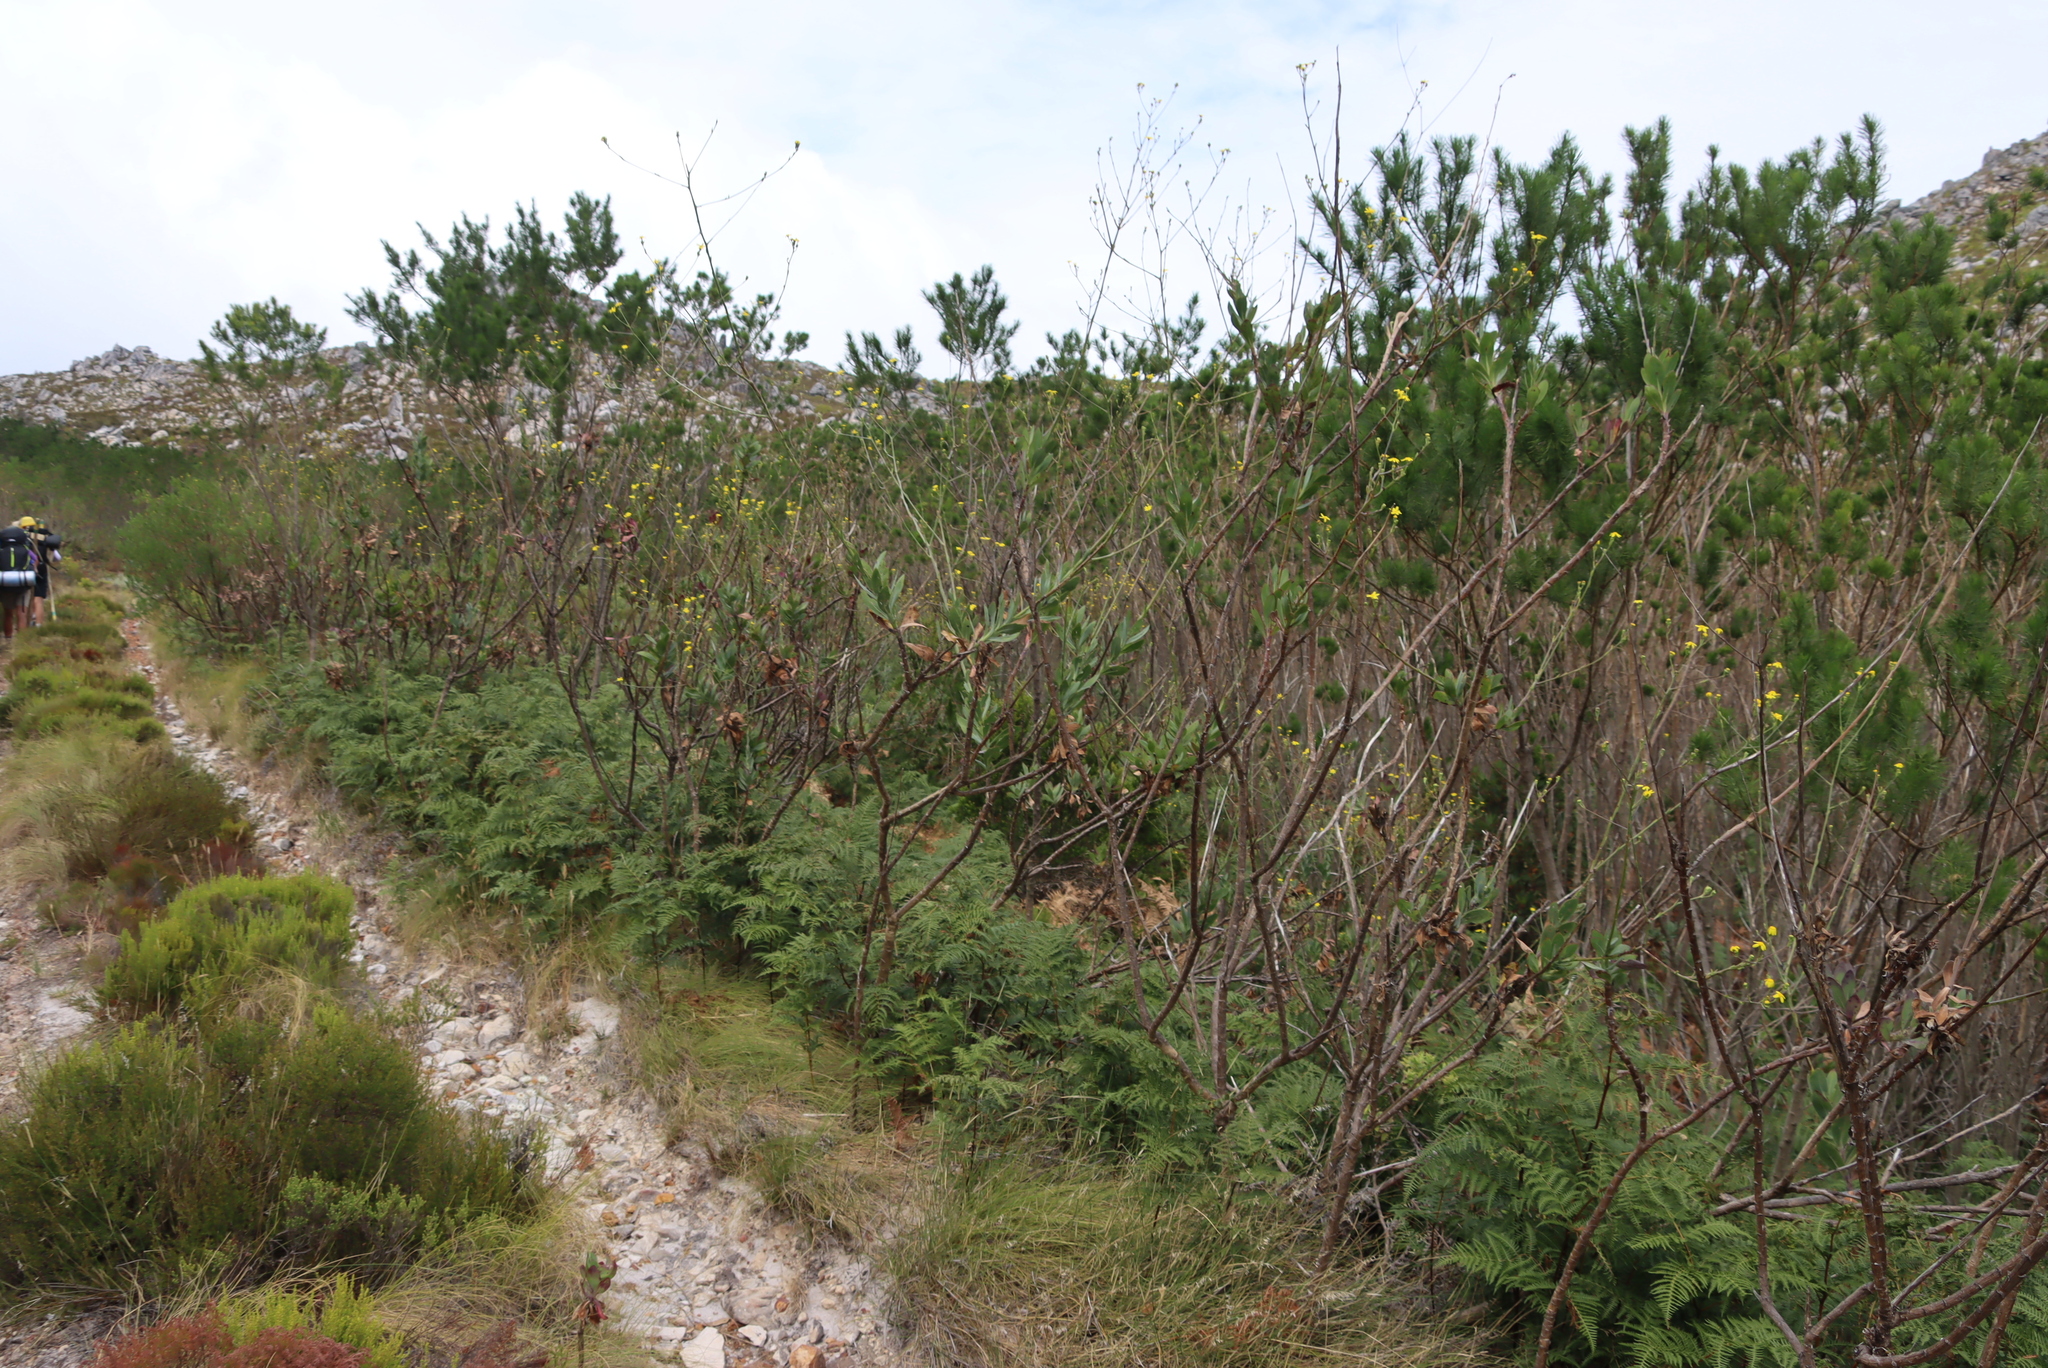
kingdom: Plantae
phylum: Tracheophyta
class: Magnoliopsida
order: Asterales
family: Asteraceae
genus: Othonna
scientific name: Othonna quinquedentata
